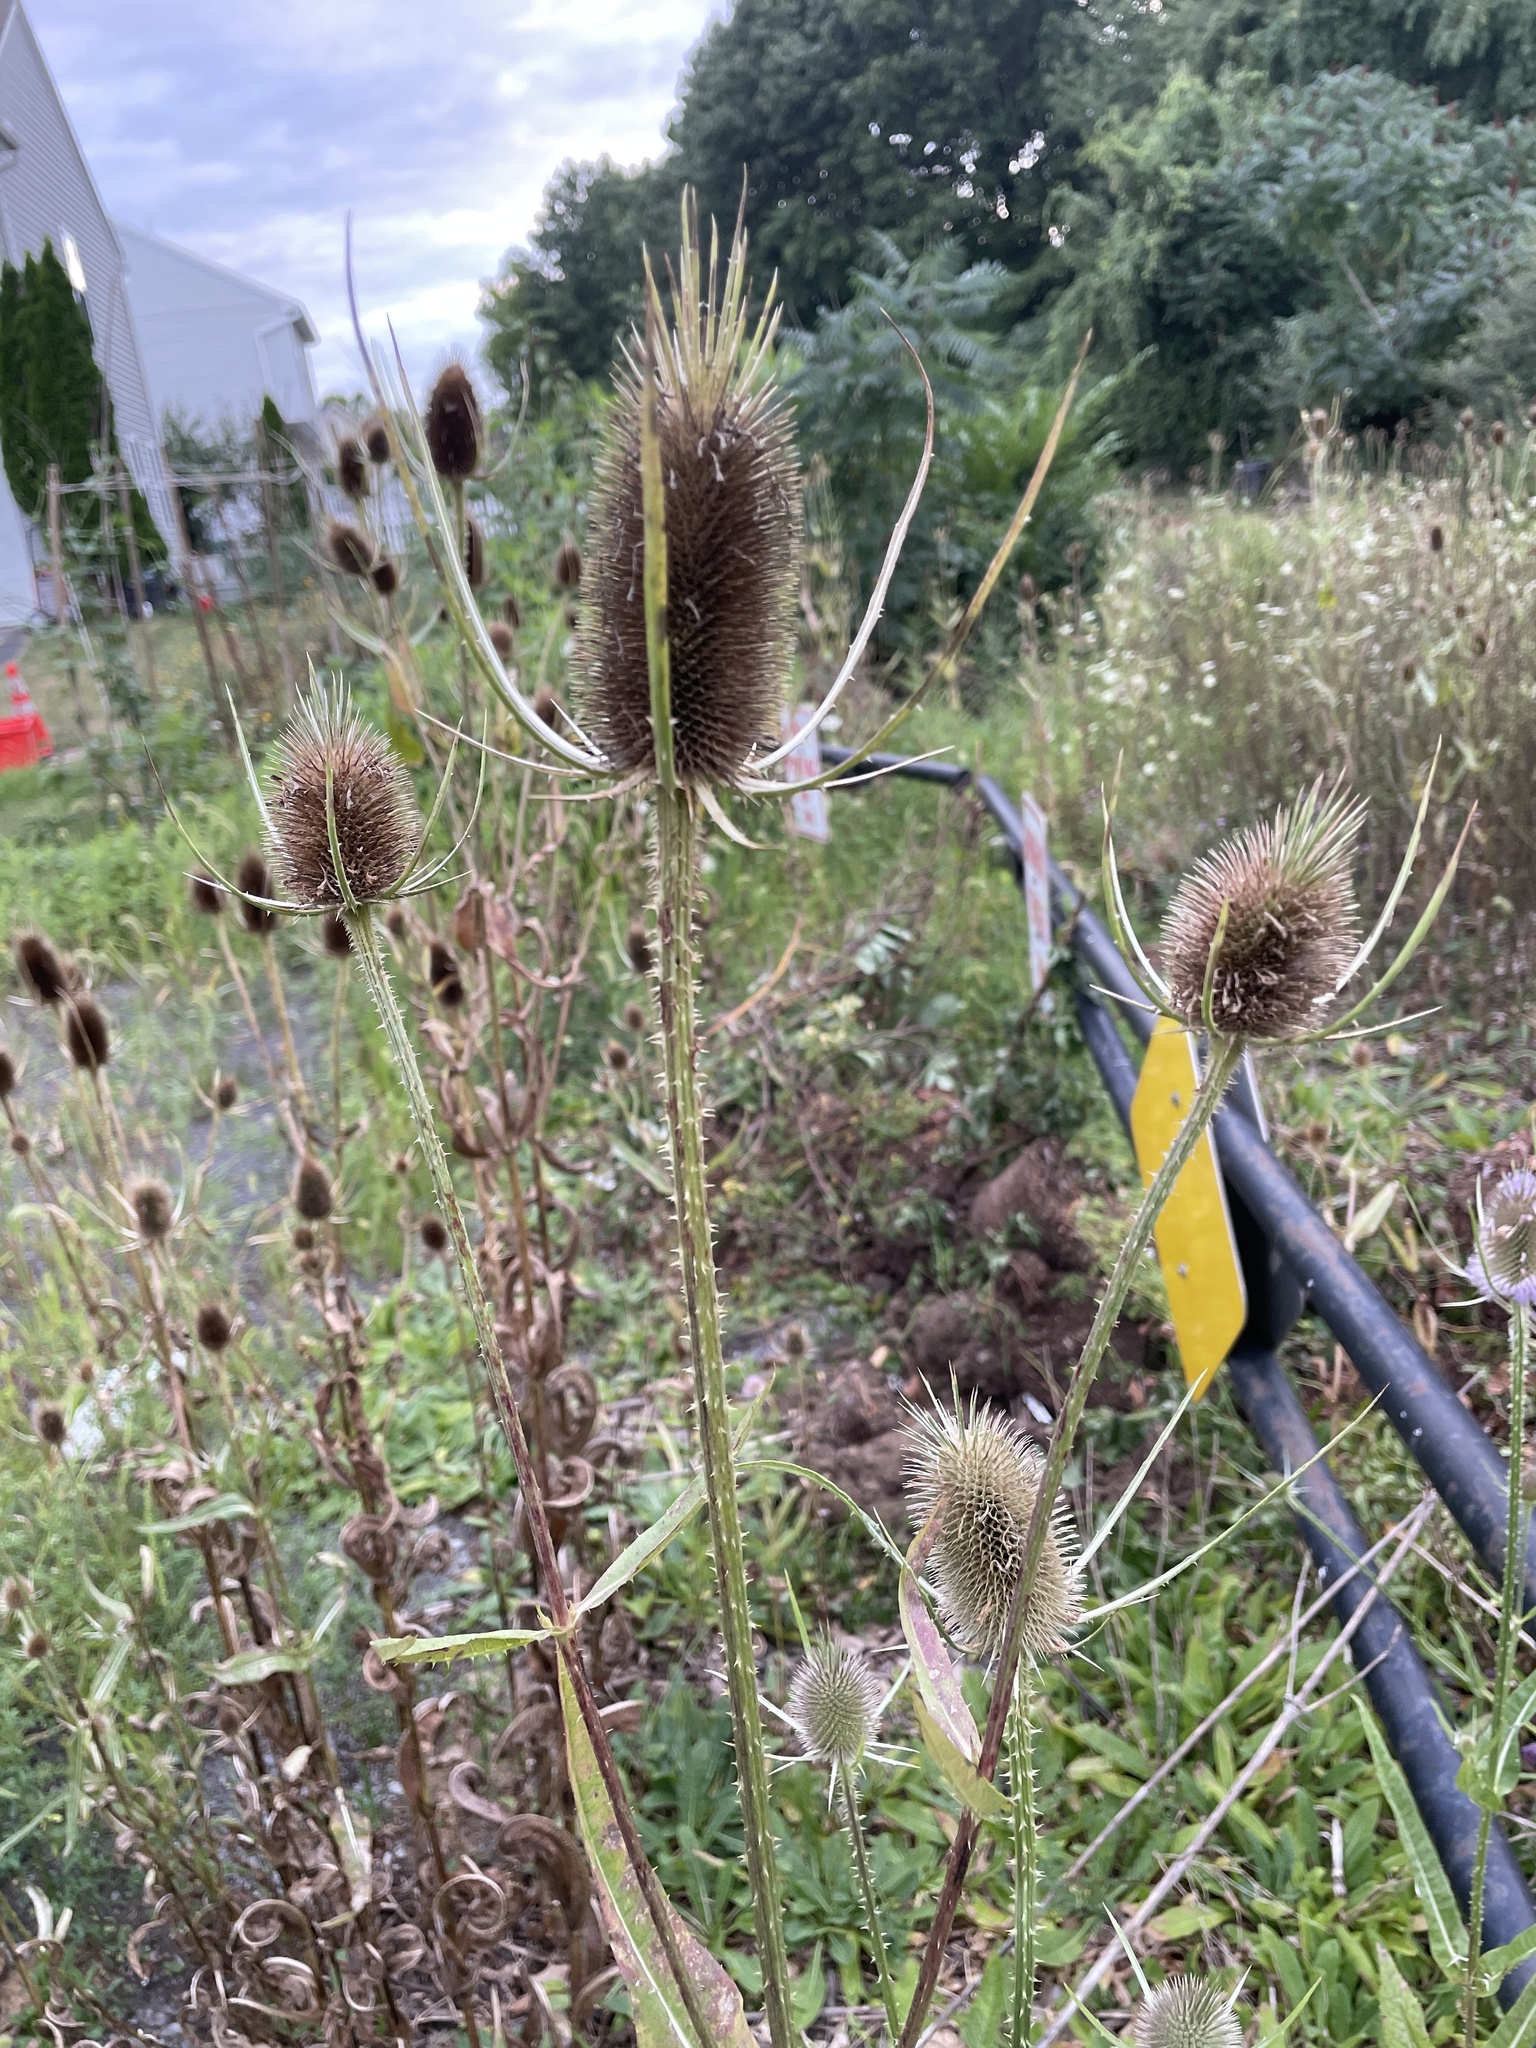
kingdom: Plantae
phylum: Tracheophyta
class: Magnoliopsida
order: Dipsacales
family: Caprifoliaceae
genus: Dipsacus
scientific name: Dipsacus fullonum
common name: Teasel
